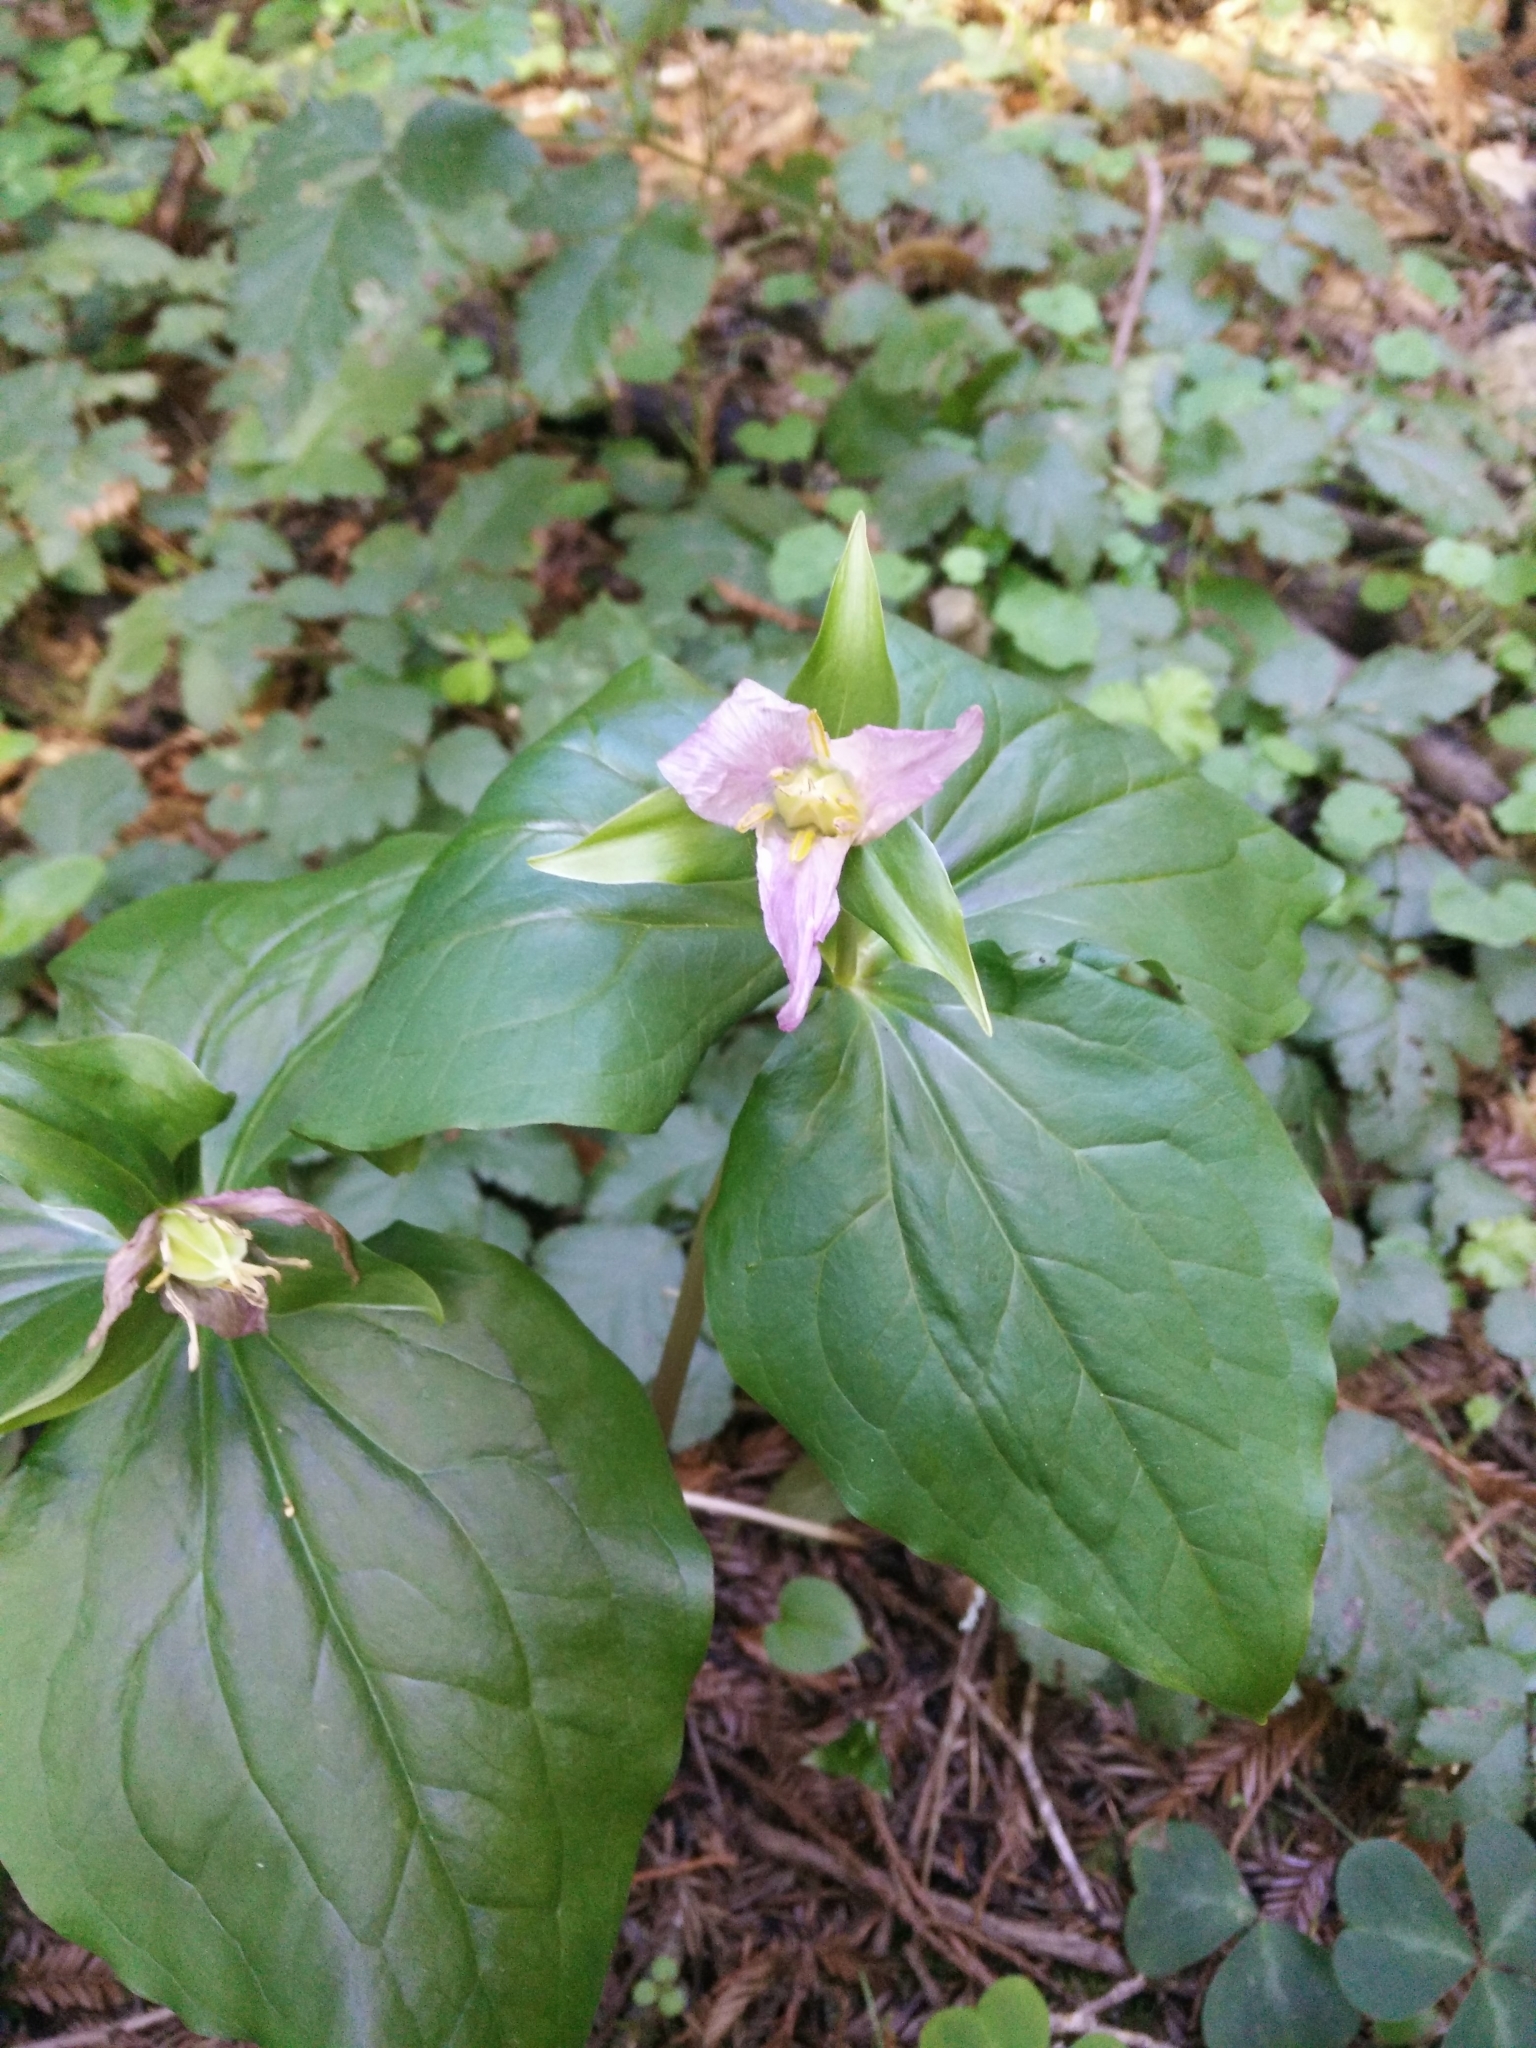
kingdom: Plantae
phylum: Tracheophyta
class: Liliopsida
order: Liliales
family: Melanthiaceae
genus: Trillium
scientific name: Trillium ovatum
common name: Pacific trillium
